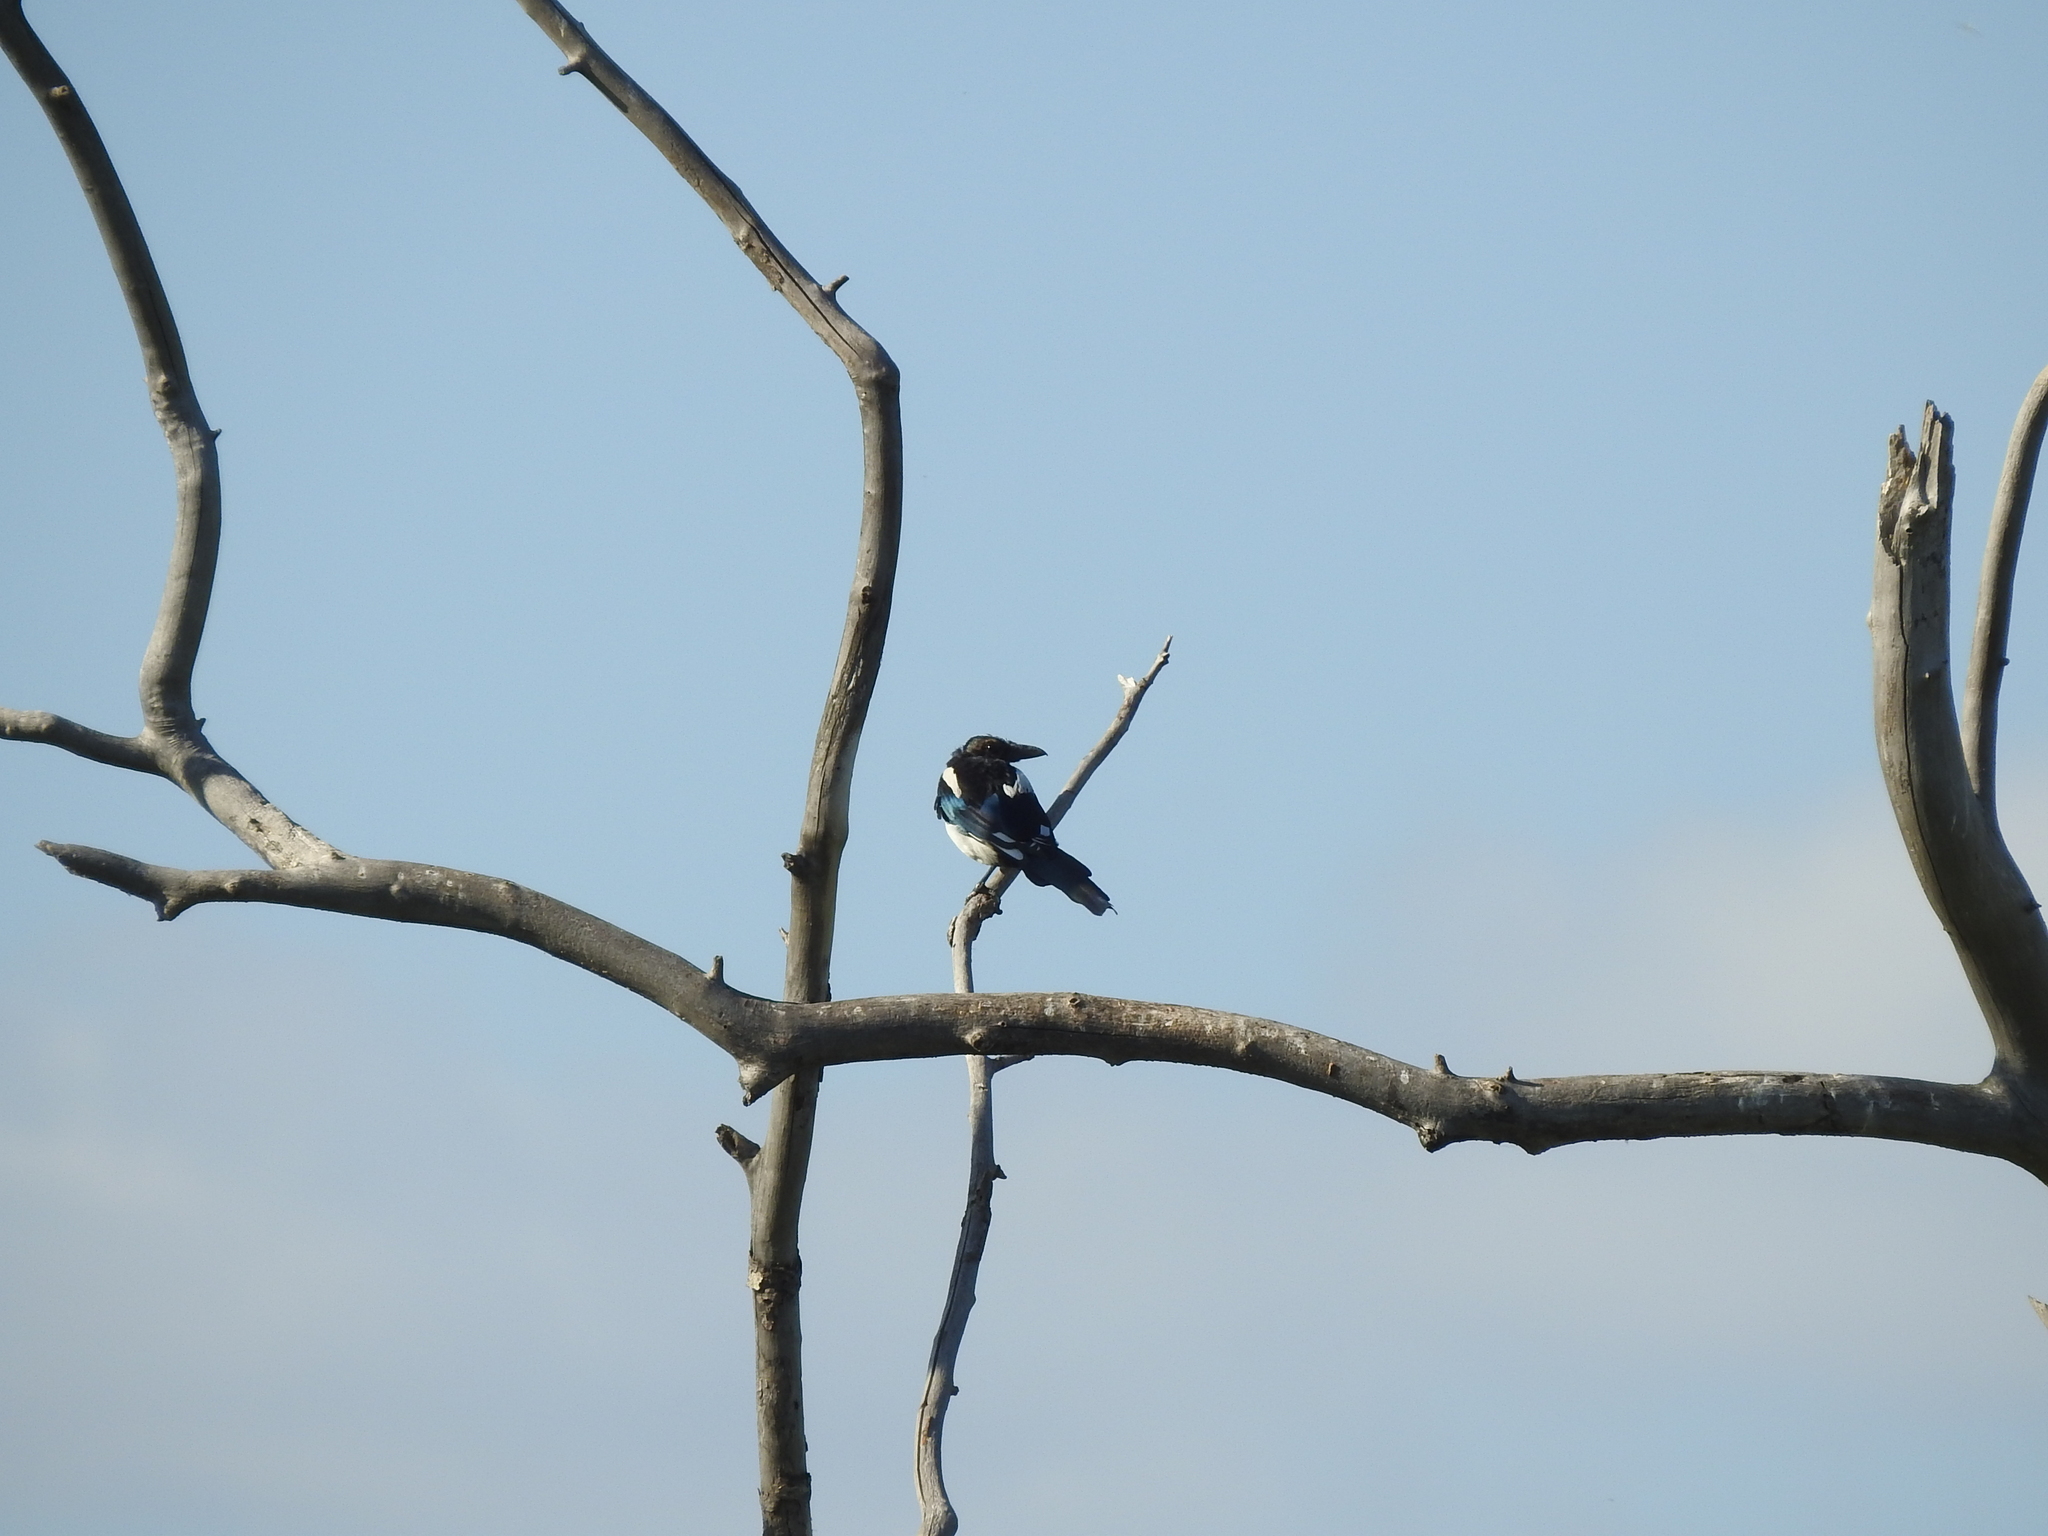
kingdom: Animalia
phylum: Chordata
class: Aves
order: Passeriformes
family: Corvidae
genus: Pica
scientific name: Pica pica
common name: Eurasian magpie
